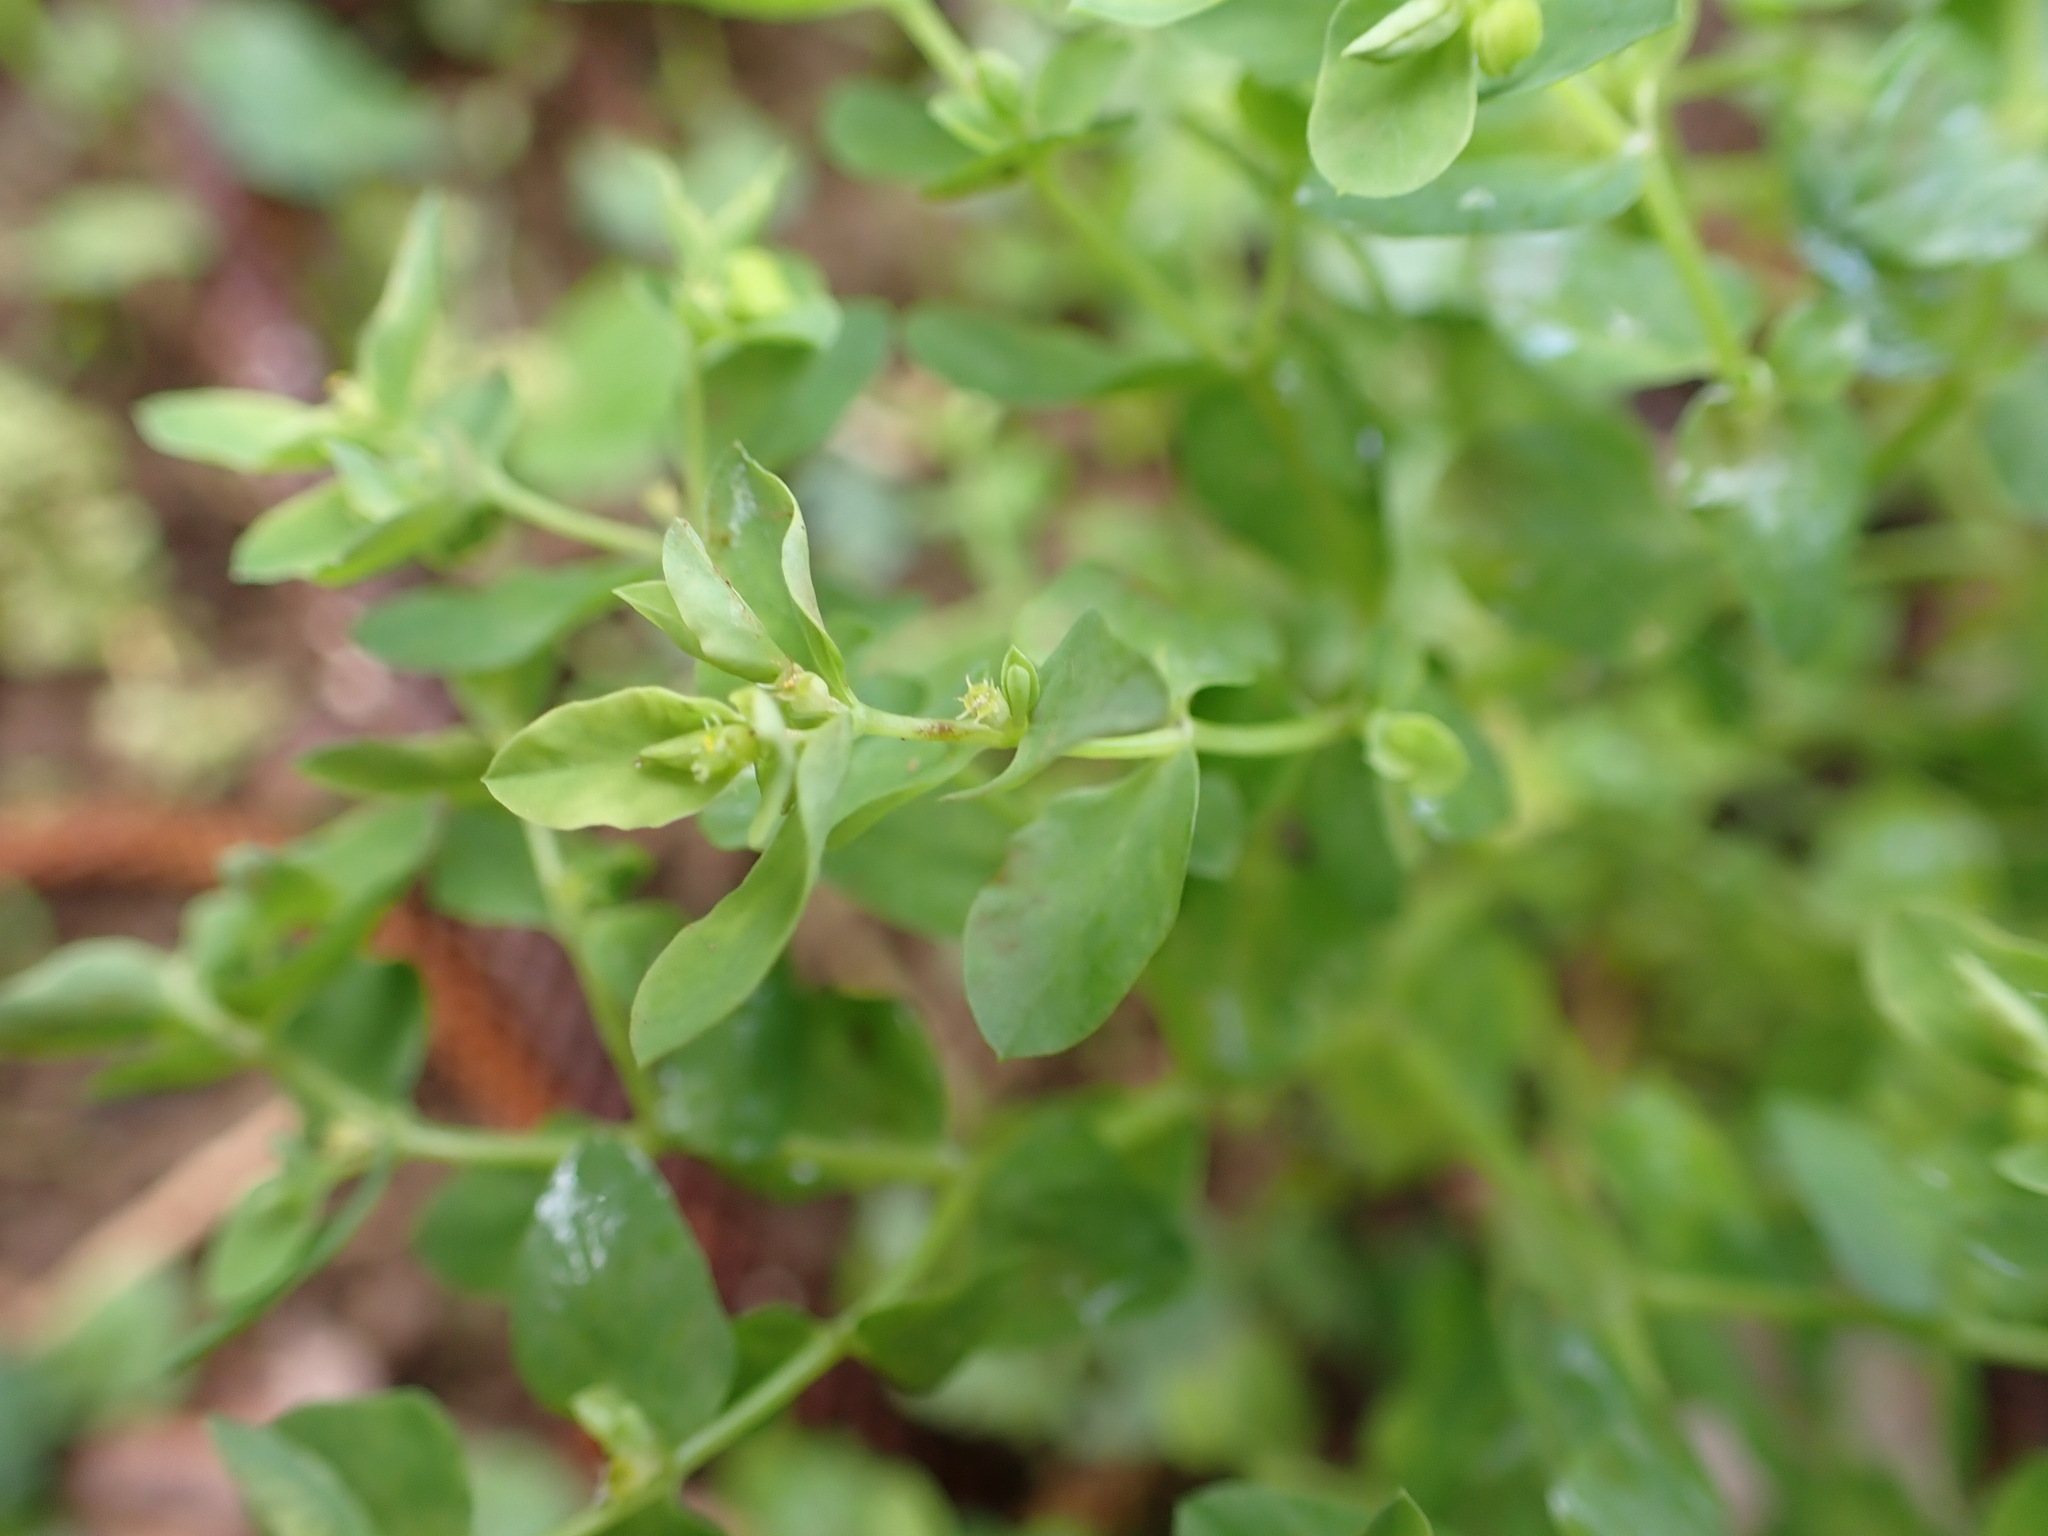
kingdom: Plantae
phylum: Tracheophyta
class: Magnoliopsida
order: Malpighiales
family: Euphorbiaceae
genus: Euphorbia
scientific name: Euphorbia peplus
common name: Petty spurge
